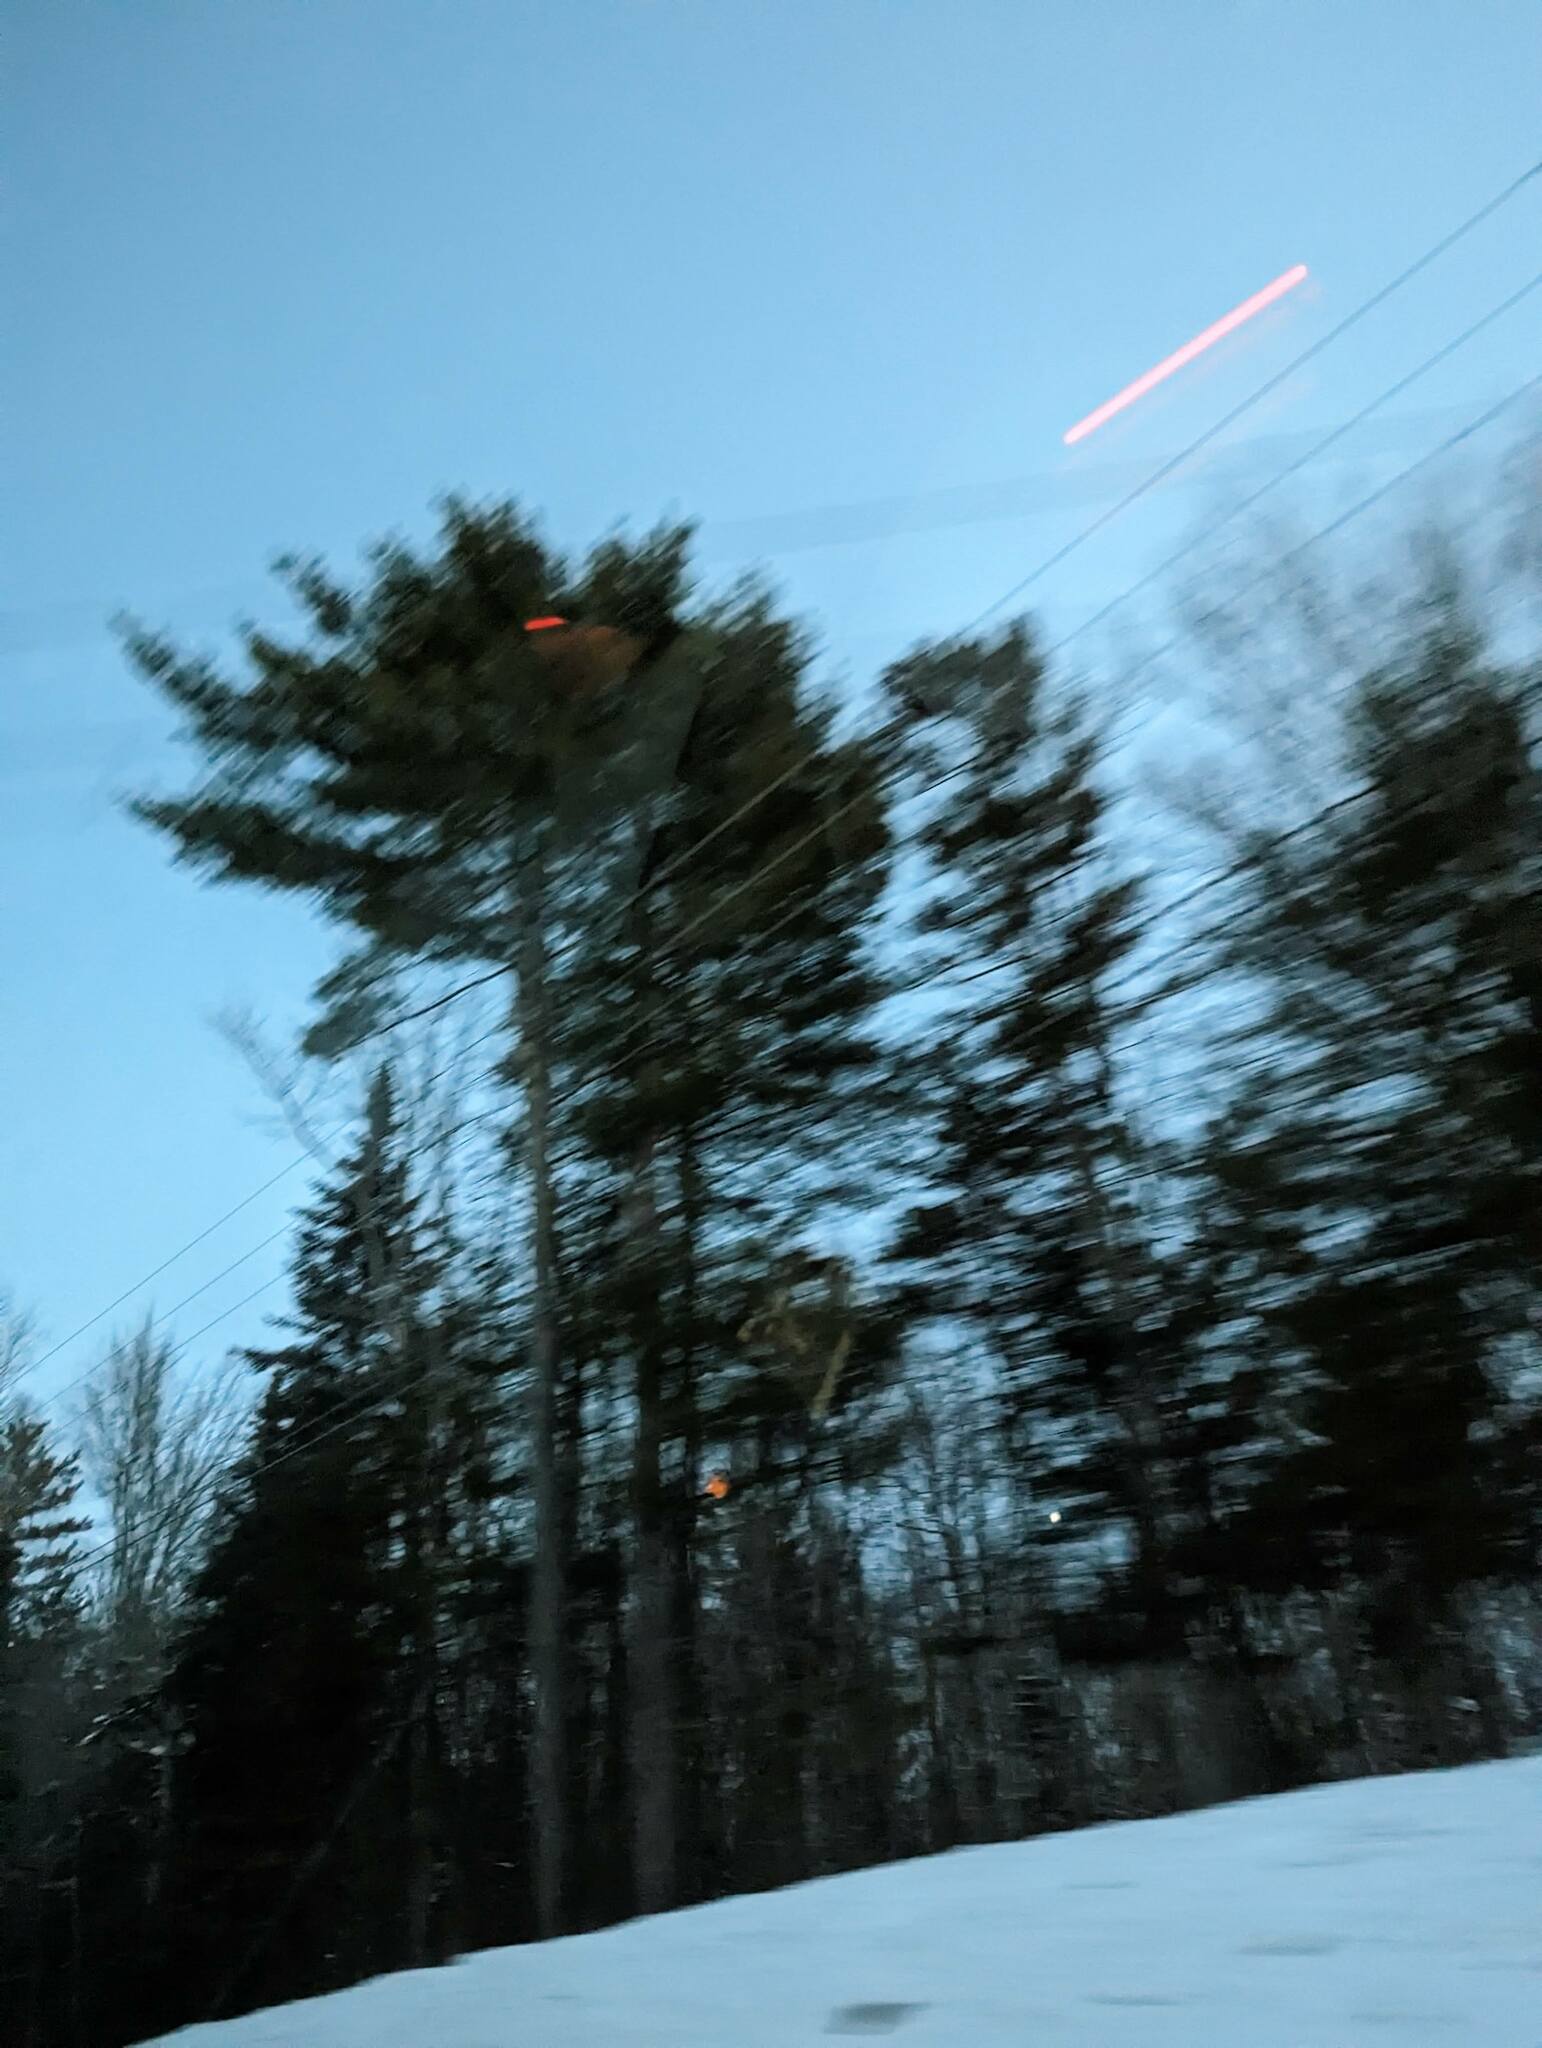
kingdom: Plantae
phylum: Tracheophyta
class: Pinopsida
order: Pinales
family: Pinaceae
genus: Pinus
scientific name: Pinus strobus
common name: Weymouth pine
